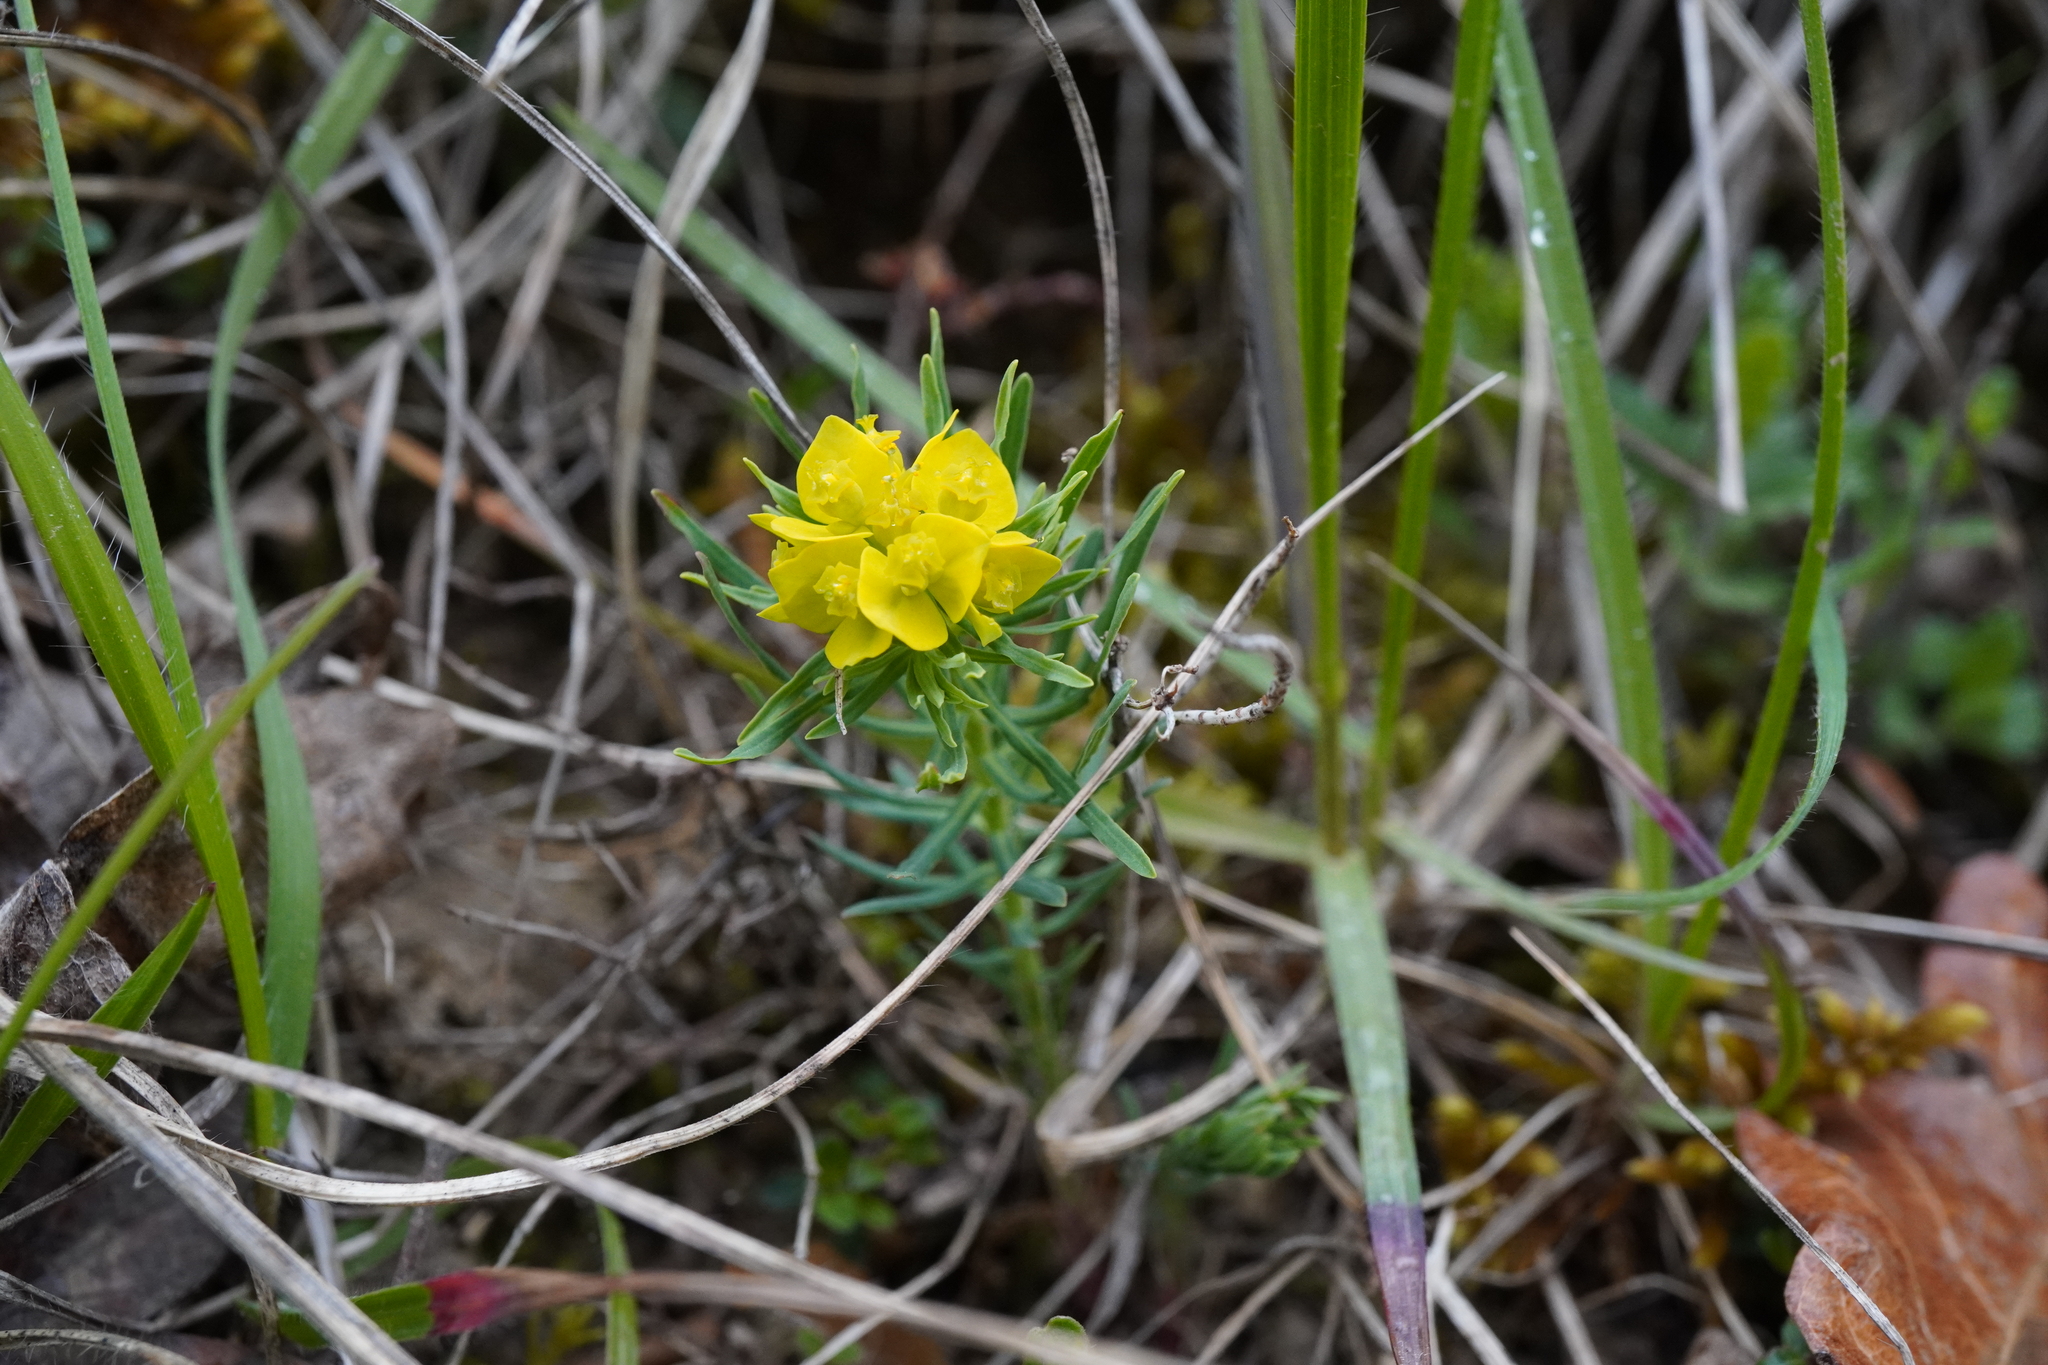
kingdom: Plantae
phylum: Tracheophyta
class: Magnoliopsida
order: Malpighiales
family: Euphorbiaceae
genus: Euphorbia
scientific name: Euphorbia cyparissias
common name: Cypress spurge
